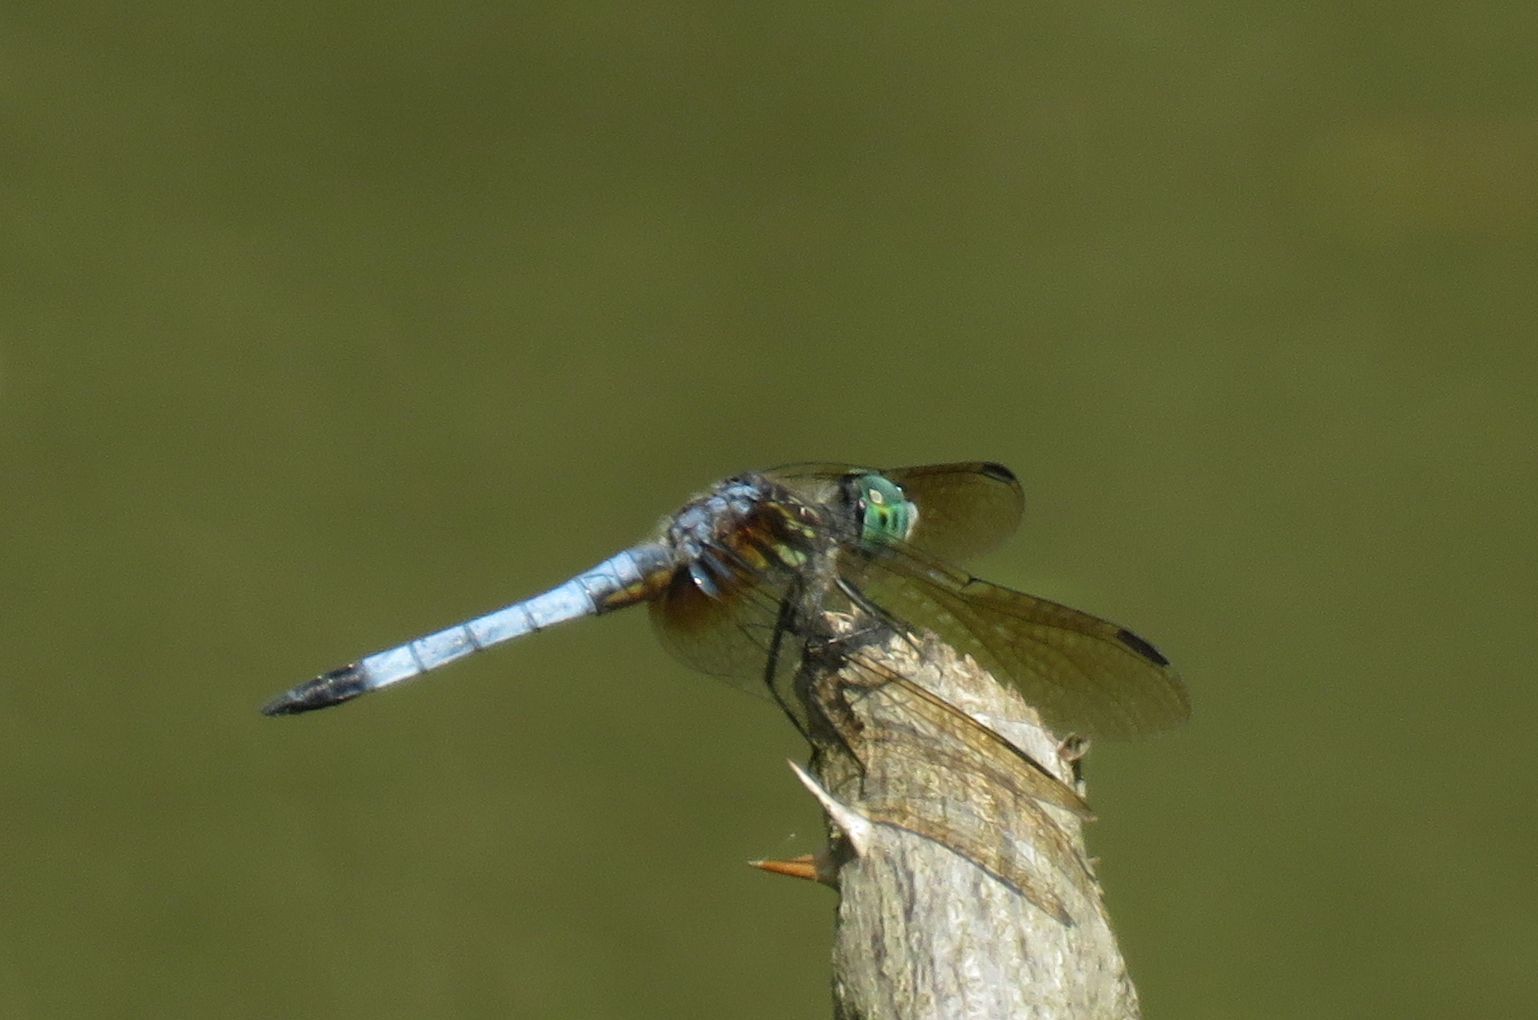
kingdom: Animalia
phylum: Arthropoda
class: Insecta
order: Odonata
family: Libellulidae
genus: Pachydiplax
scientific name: Pachydiplax longipennis
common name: Blue dasher
